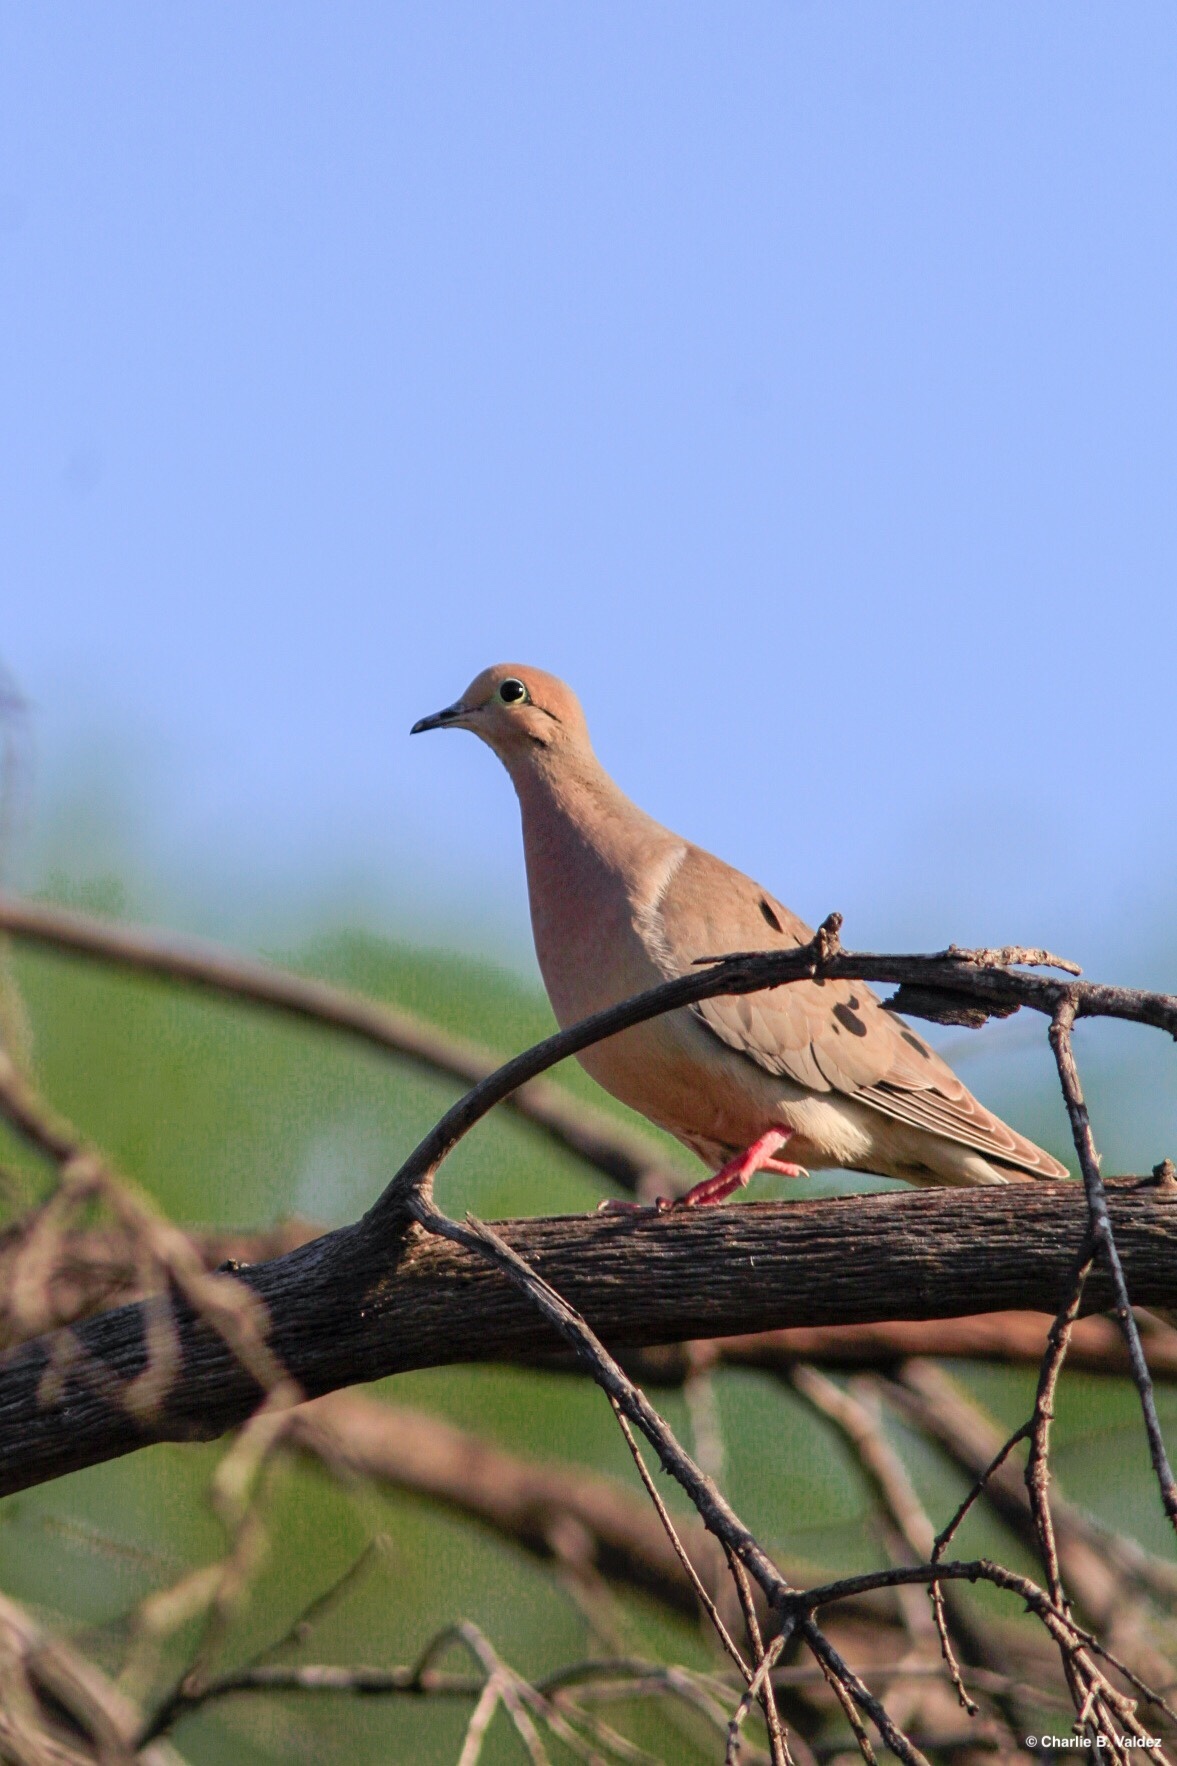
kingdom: Animalia
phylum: Chordata
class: Aves
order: Columbiformes
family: Columbidae
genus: Zenaida
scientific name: Zenaida macroura
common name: Mourning dove
